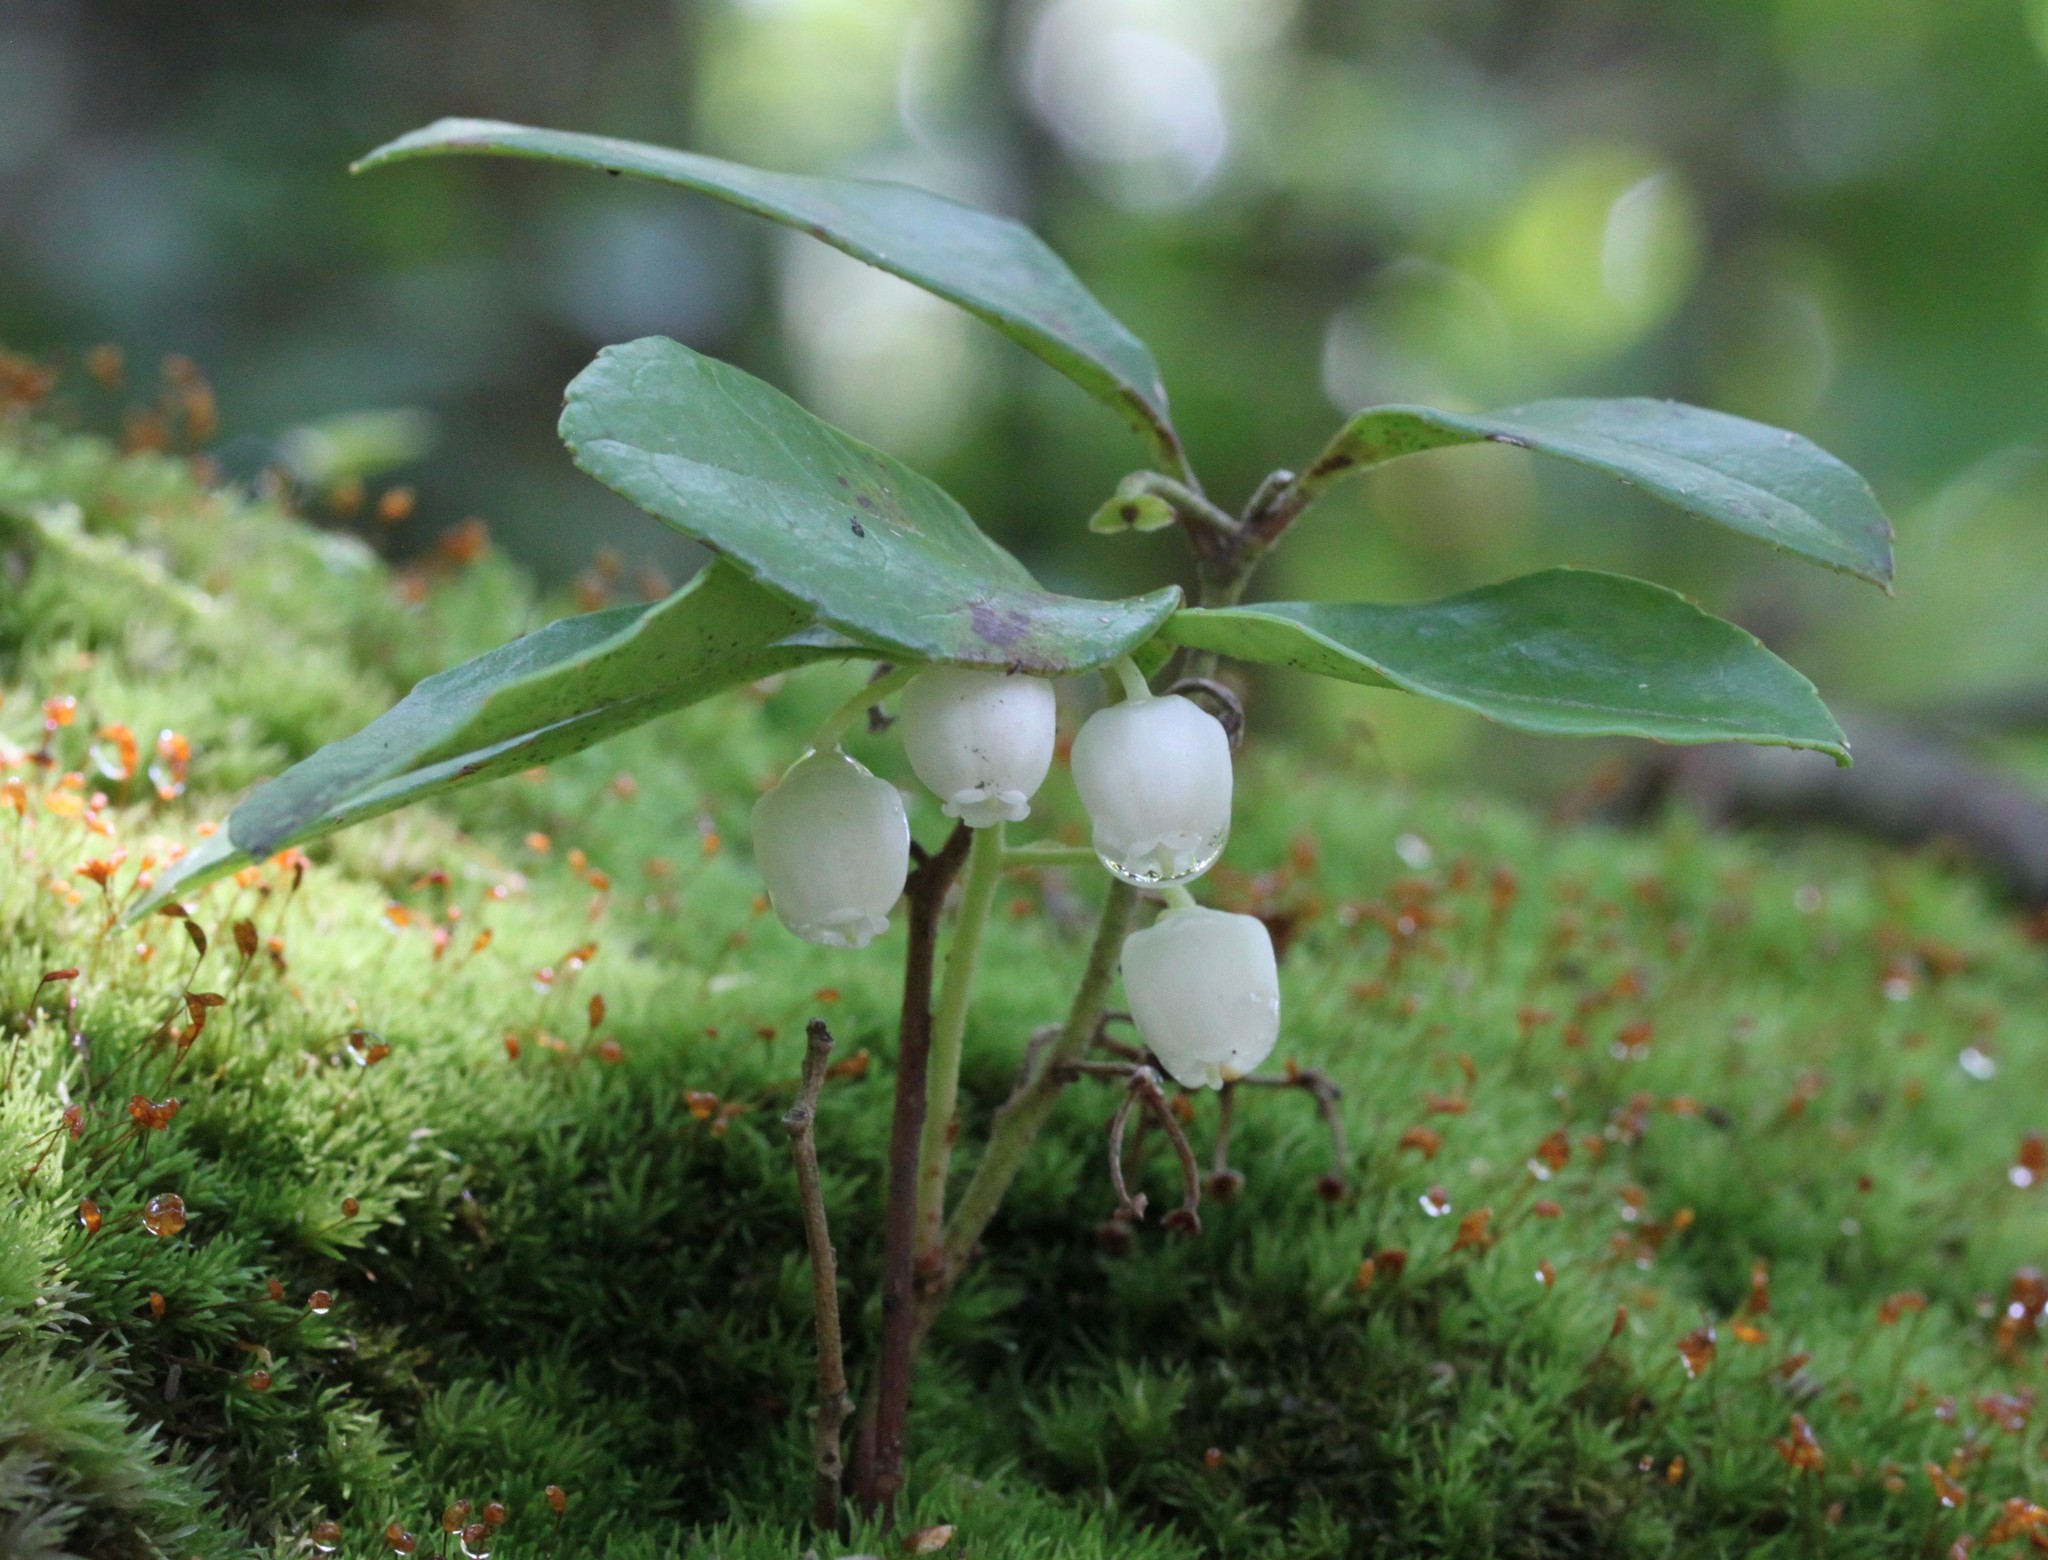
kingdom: Plantae
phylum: Tracheophyta
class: Magnoliopsida
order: Ericales
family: Ericaceae
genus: Gaultheria
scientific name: Gaultheria procumbens
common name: Checkerberry
